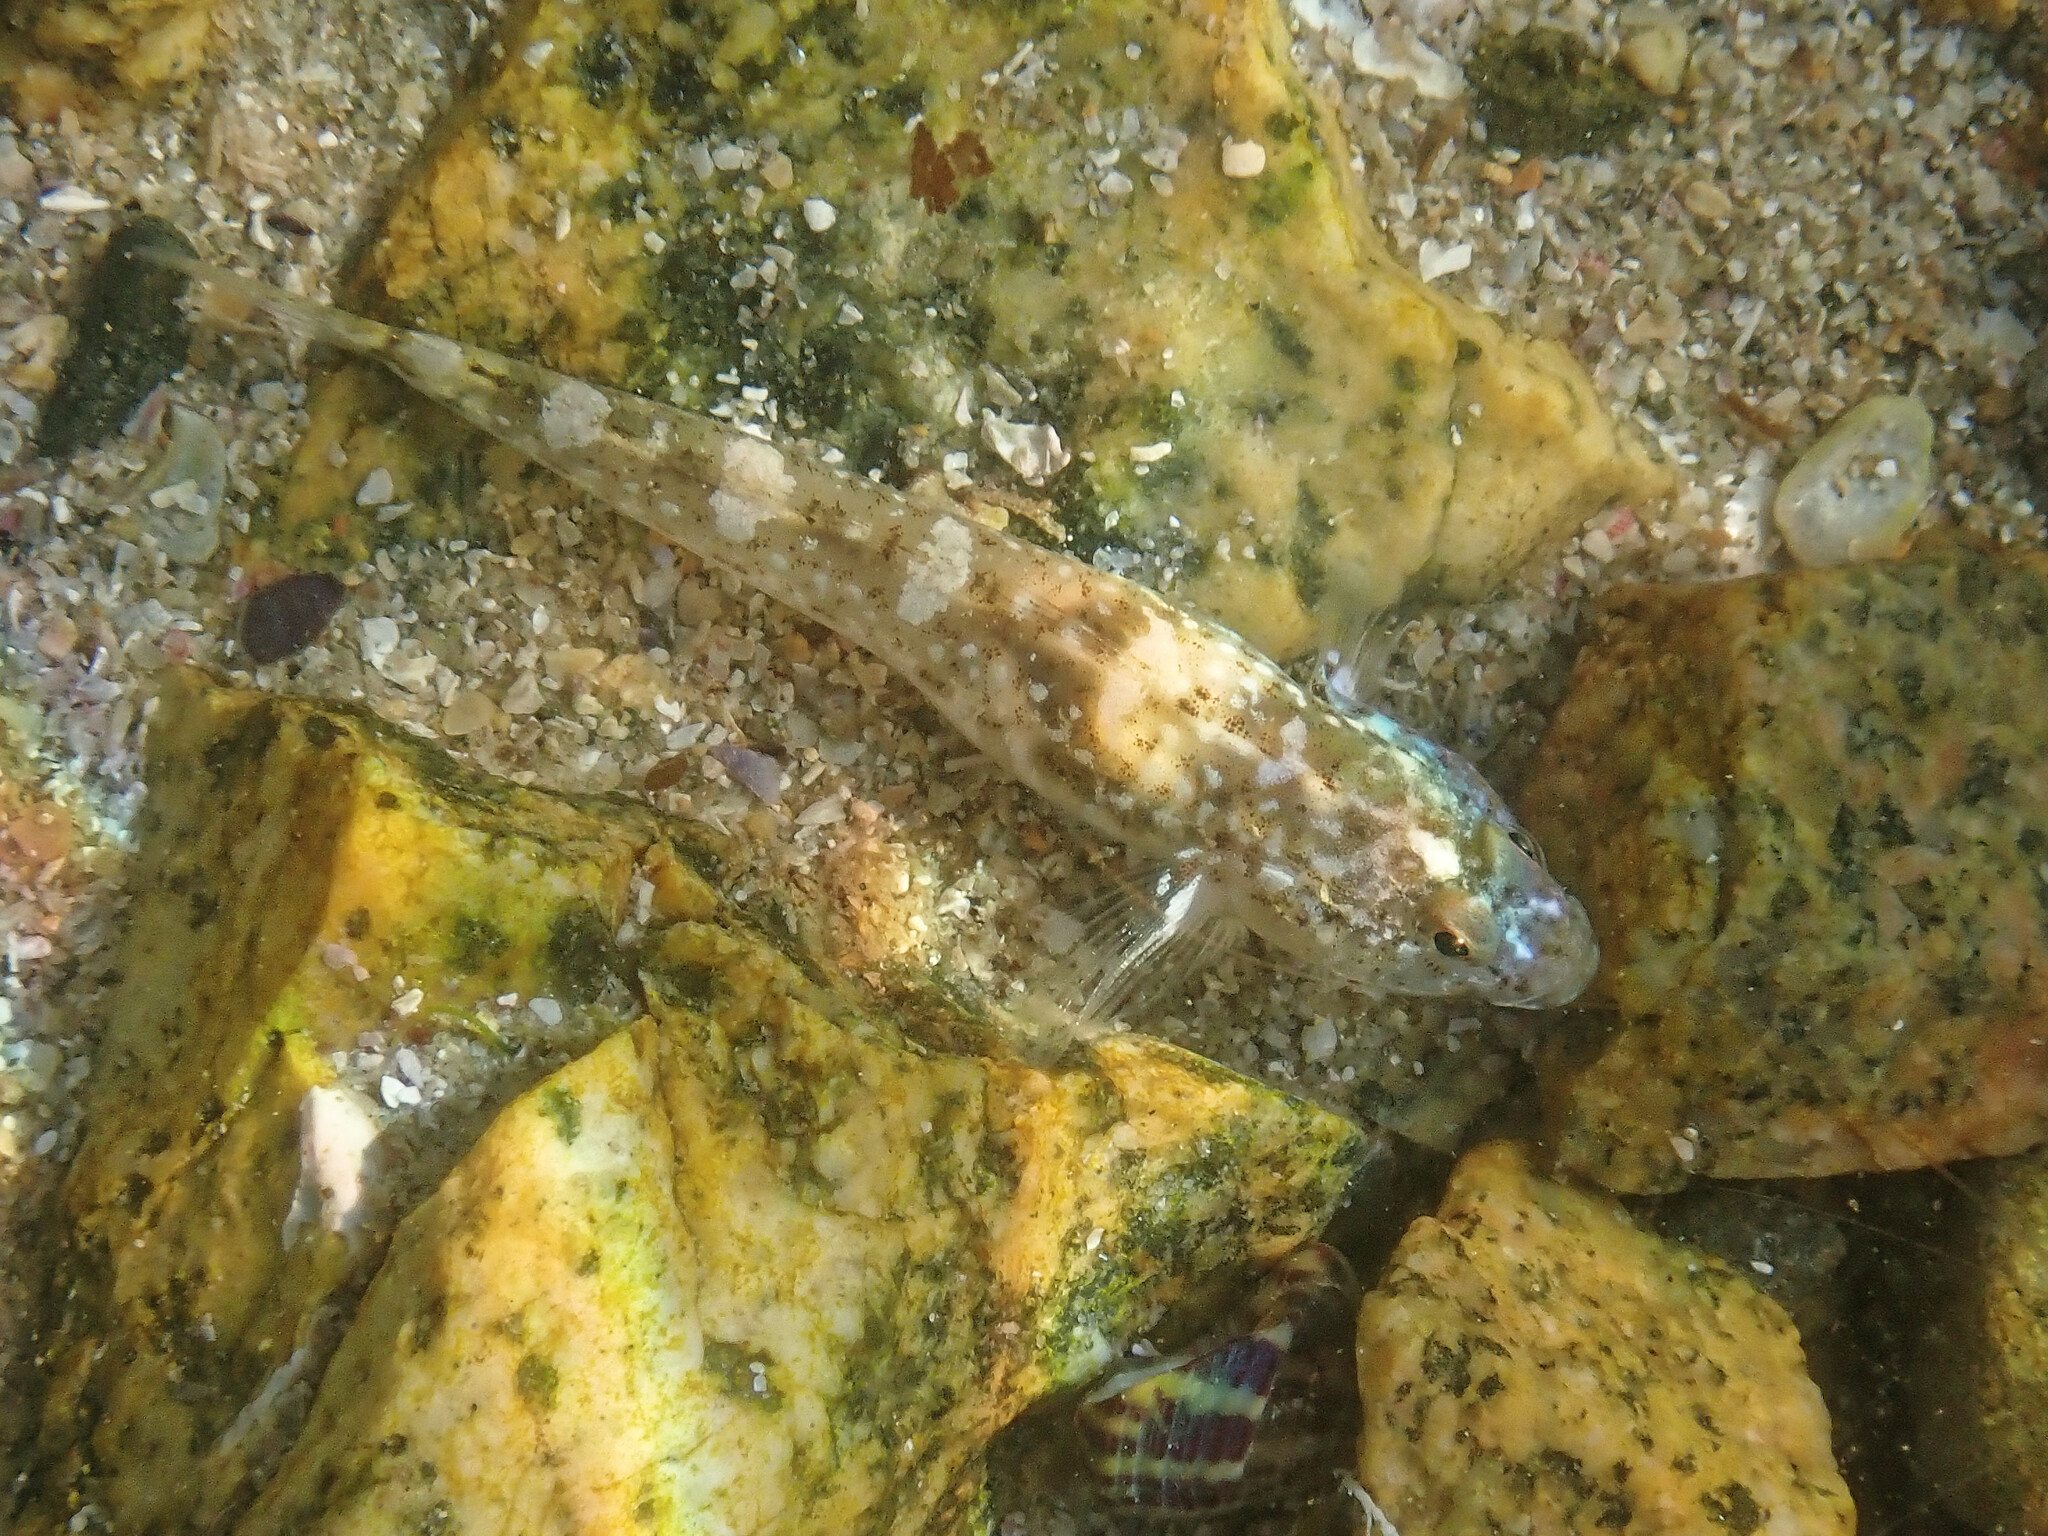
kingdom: Animalia
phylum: Chordata
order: Perciformes
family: Gobiidae
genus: Pomatoschistus
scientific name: Pomatoschistus microps
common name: Common goby
